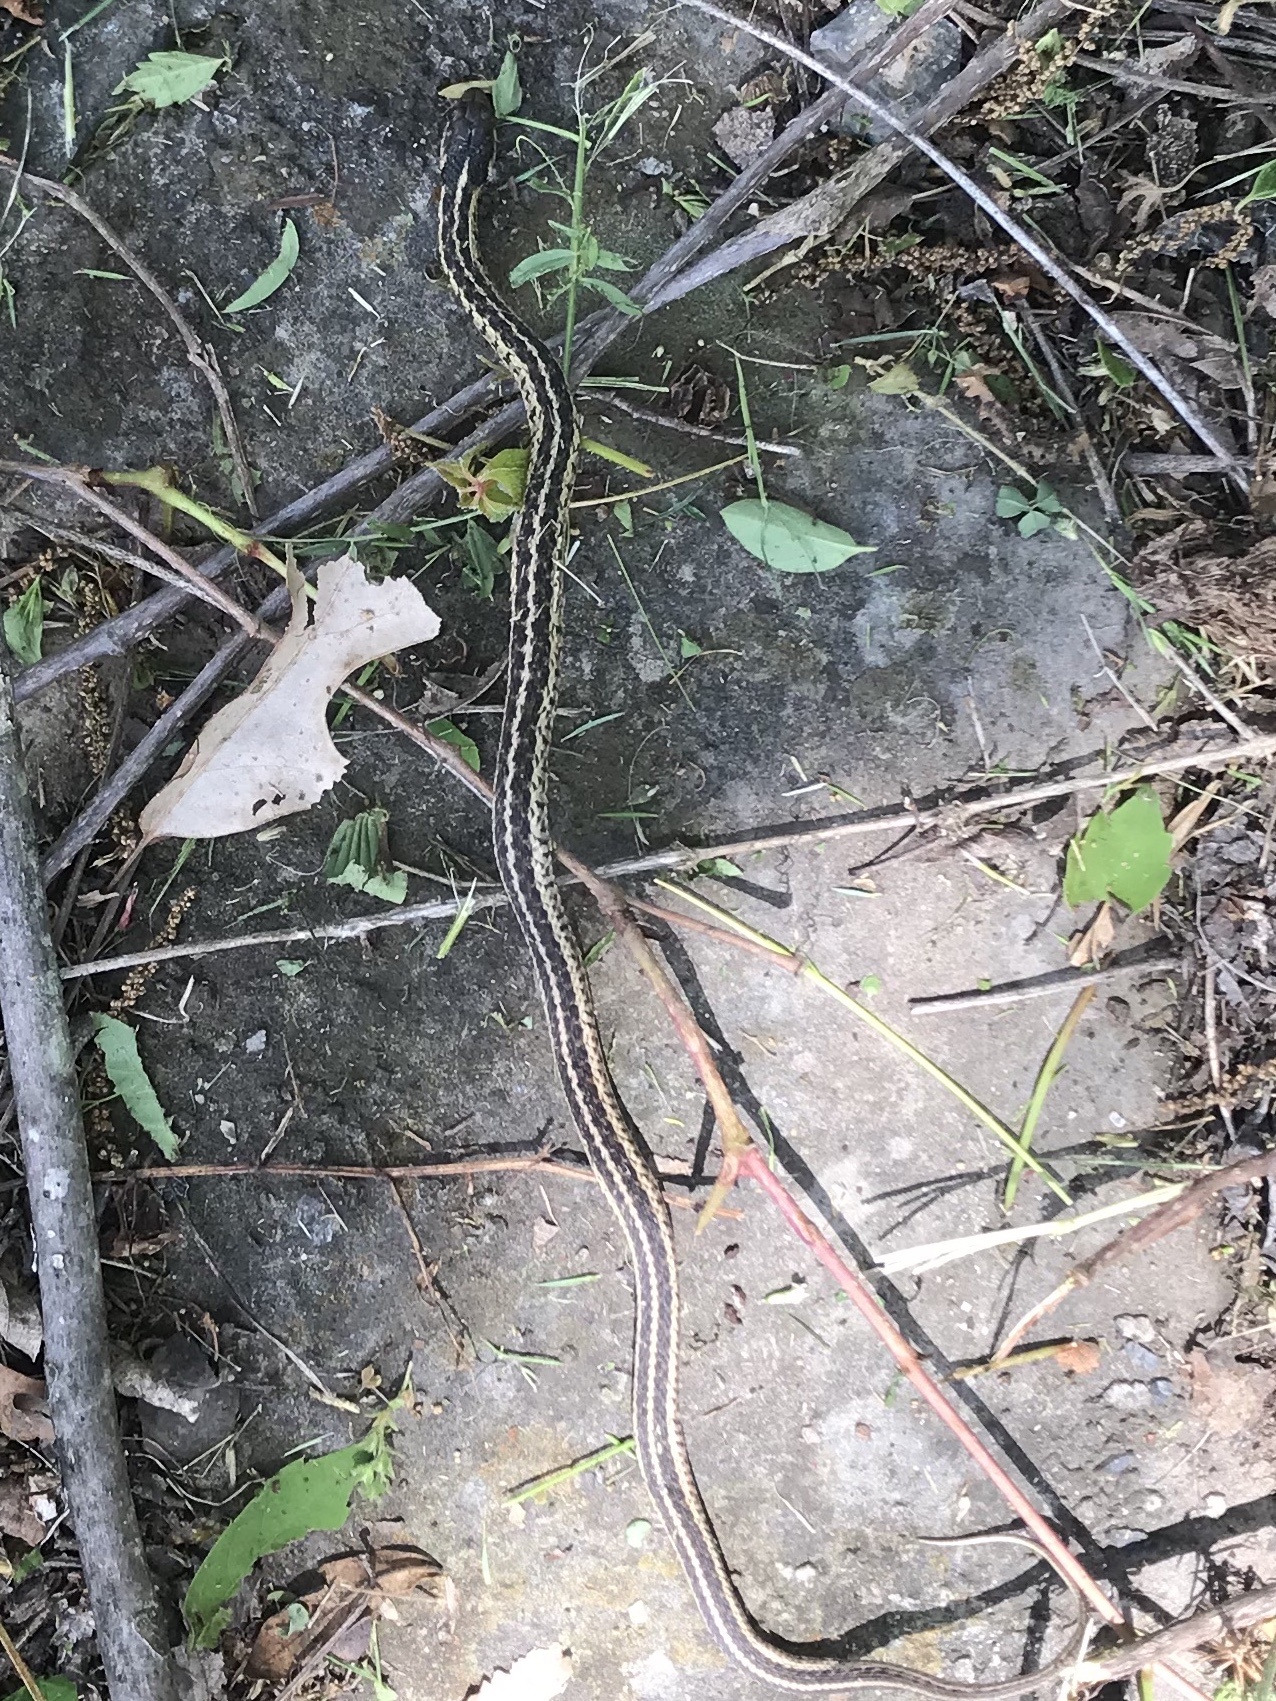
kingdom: Animalia
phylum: Chordata
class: Squamata
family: Colubridae
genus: Thamnophis
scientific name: Thamnophis sirtalis
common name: Common garter snake
